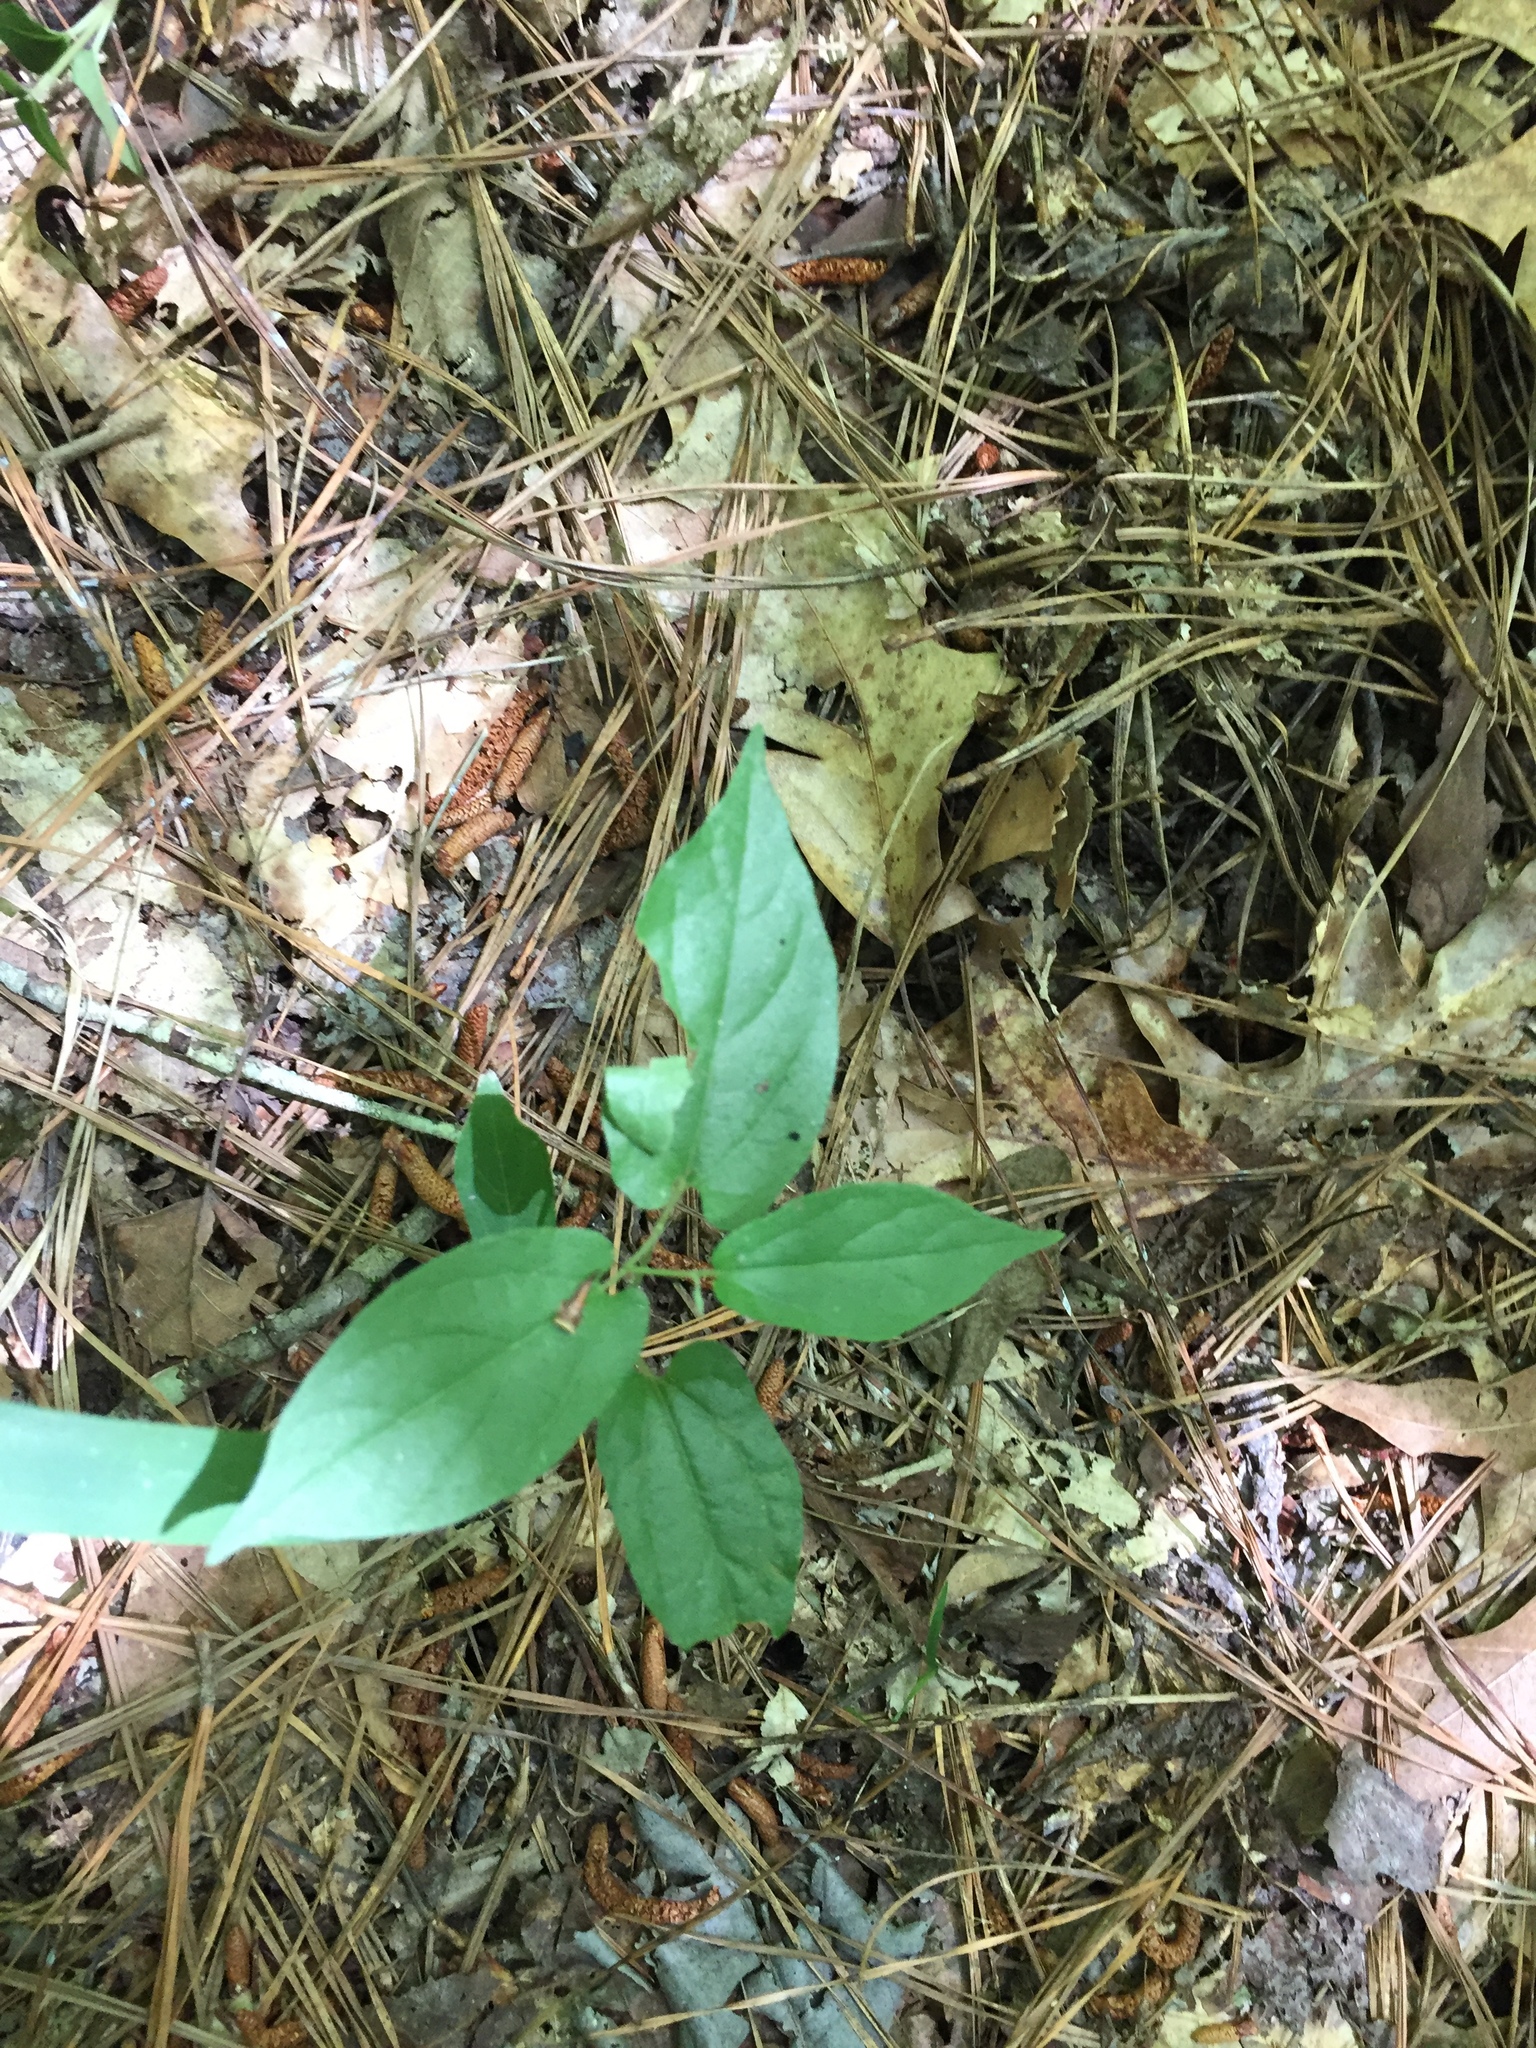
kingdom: Plantae
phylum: Tracheophyta
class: Magnoliopsida
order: Piperales
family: Aristolochiaceae
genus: Endodeca
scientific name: Endodeca serpentaria
